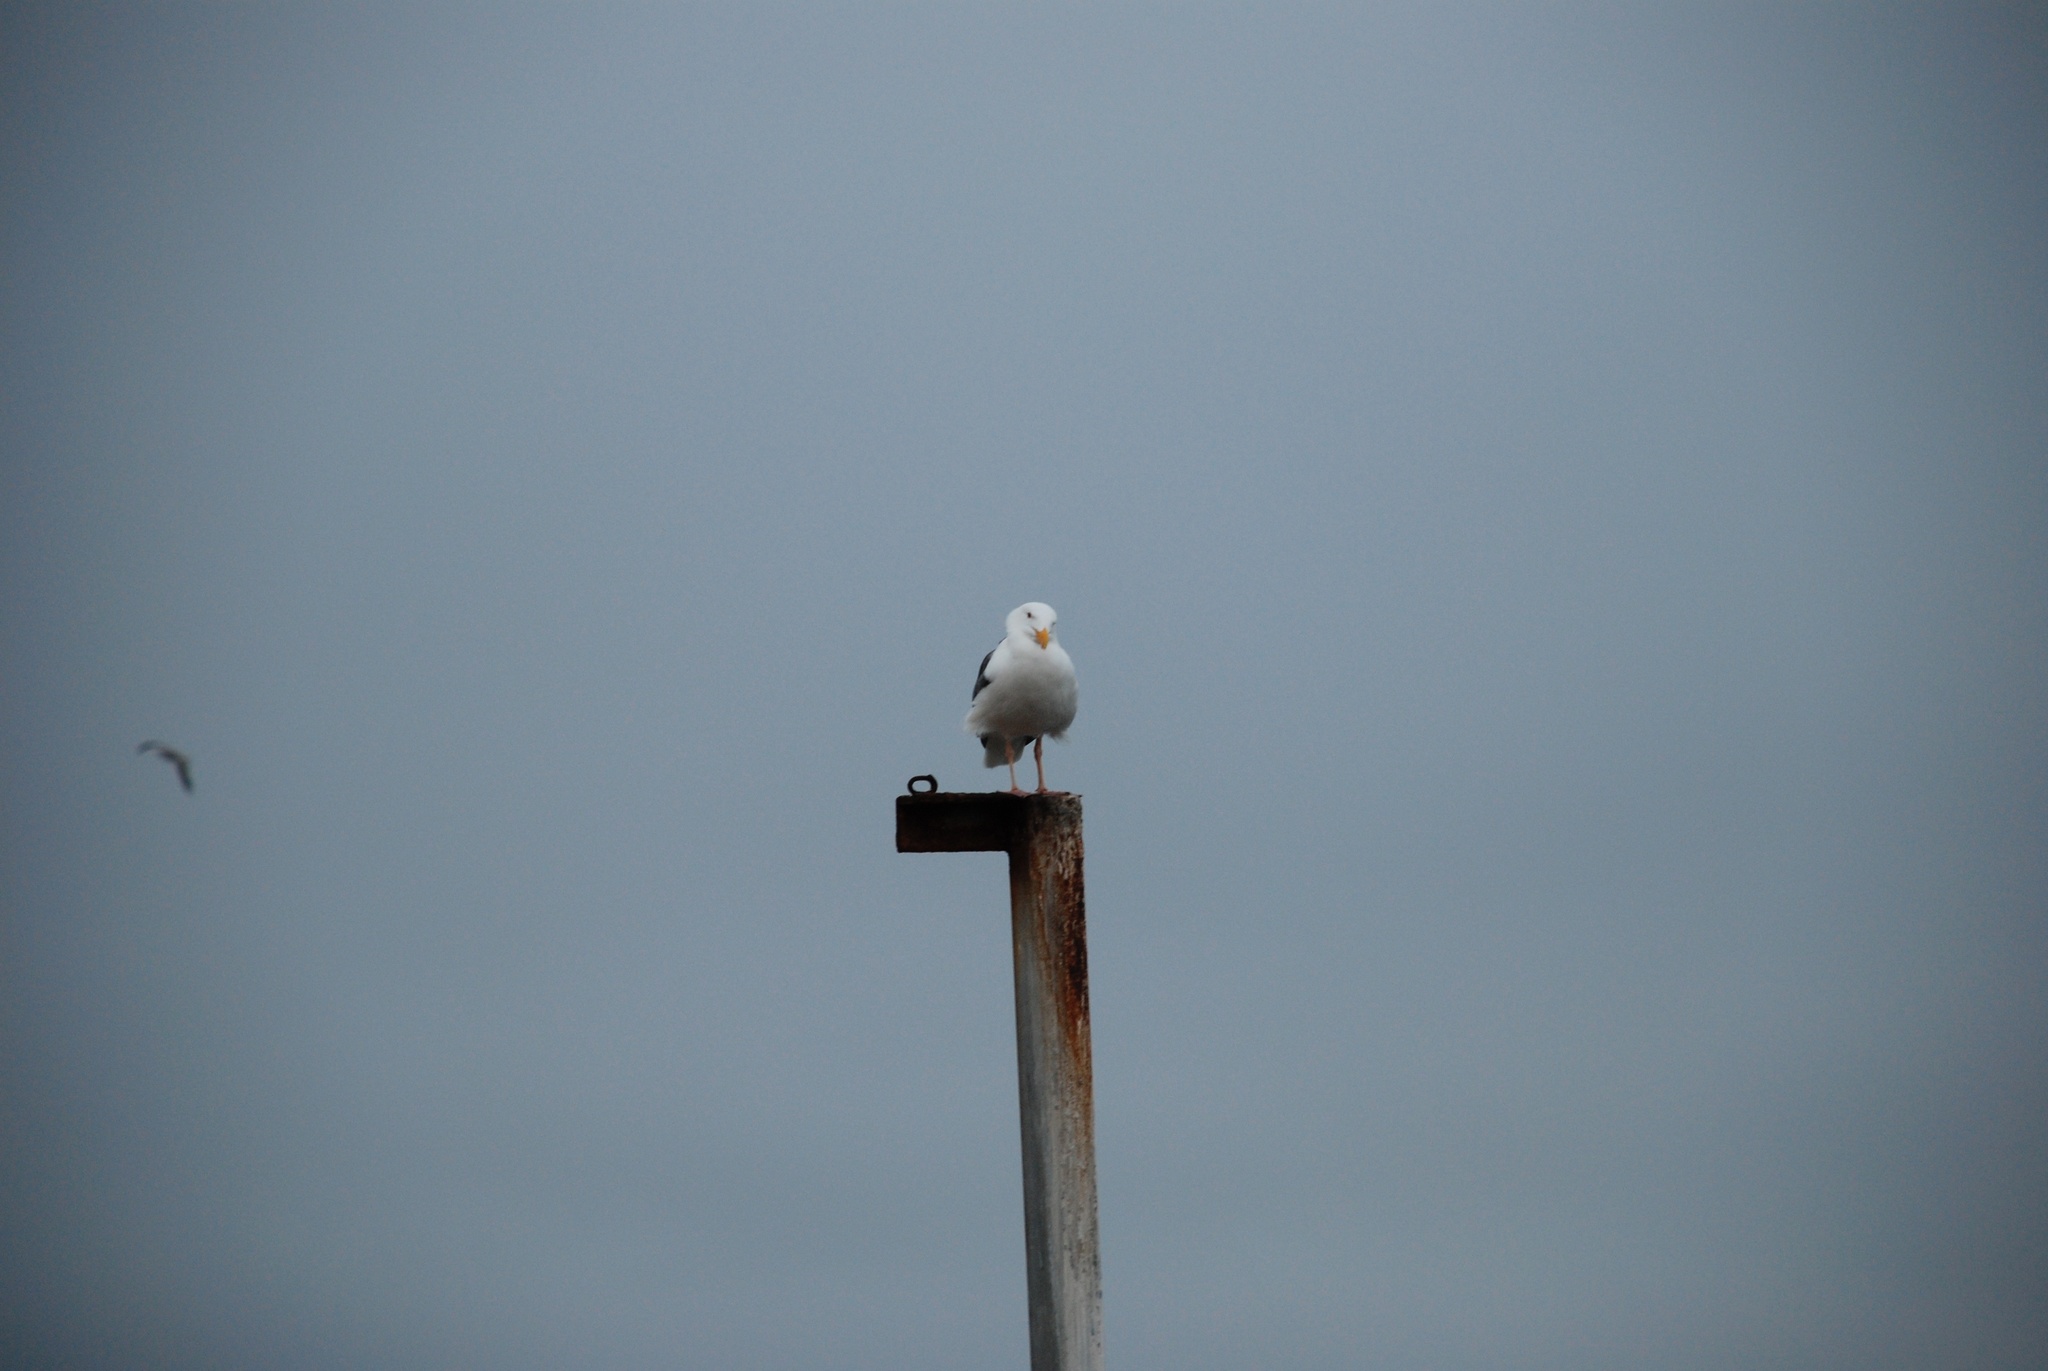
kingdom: Animalia
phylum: Chordata
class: Aves
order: Charadriiformes
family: Laridae
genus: Larus
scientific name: Larus occidentalis
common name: Western gull
